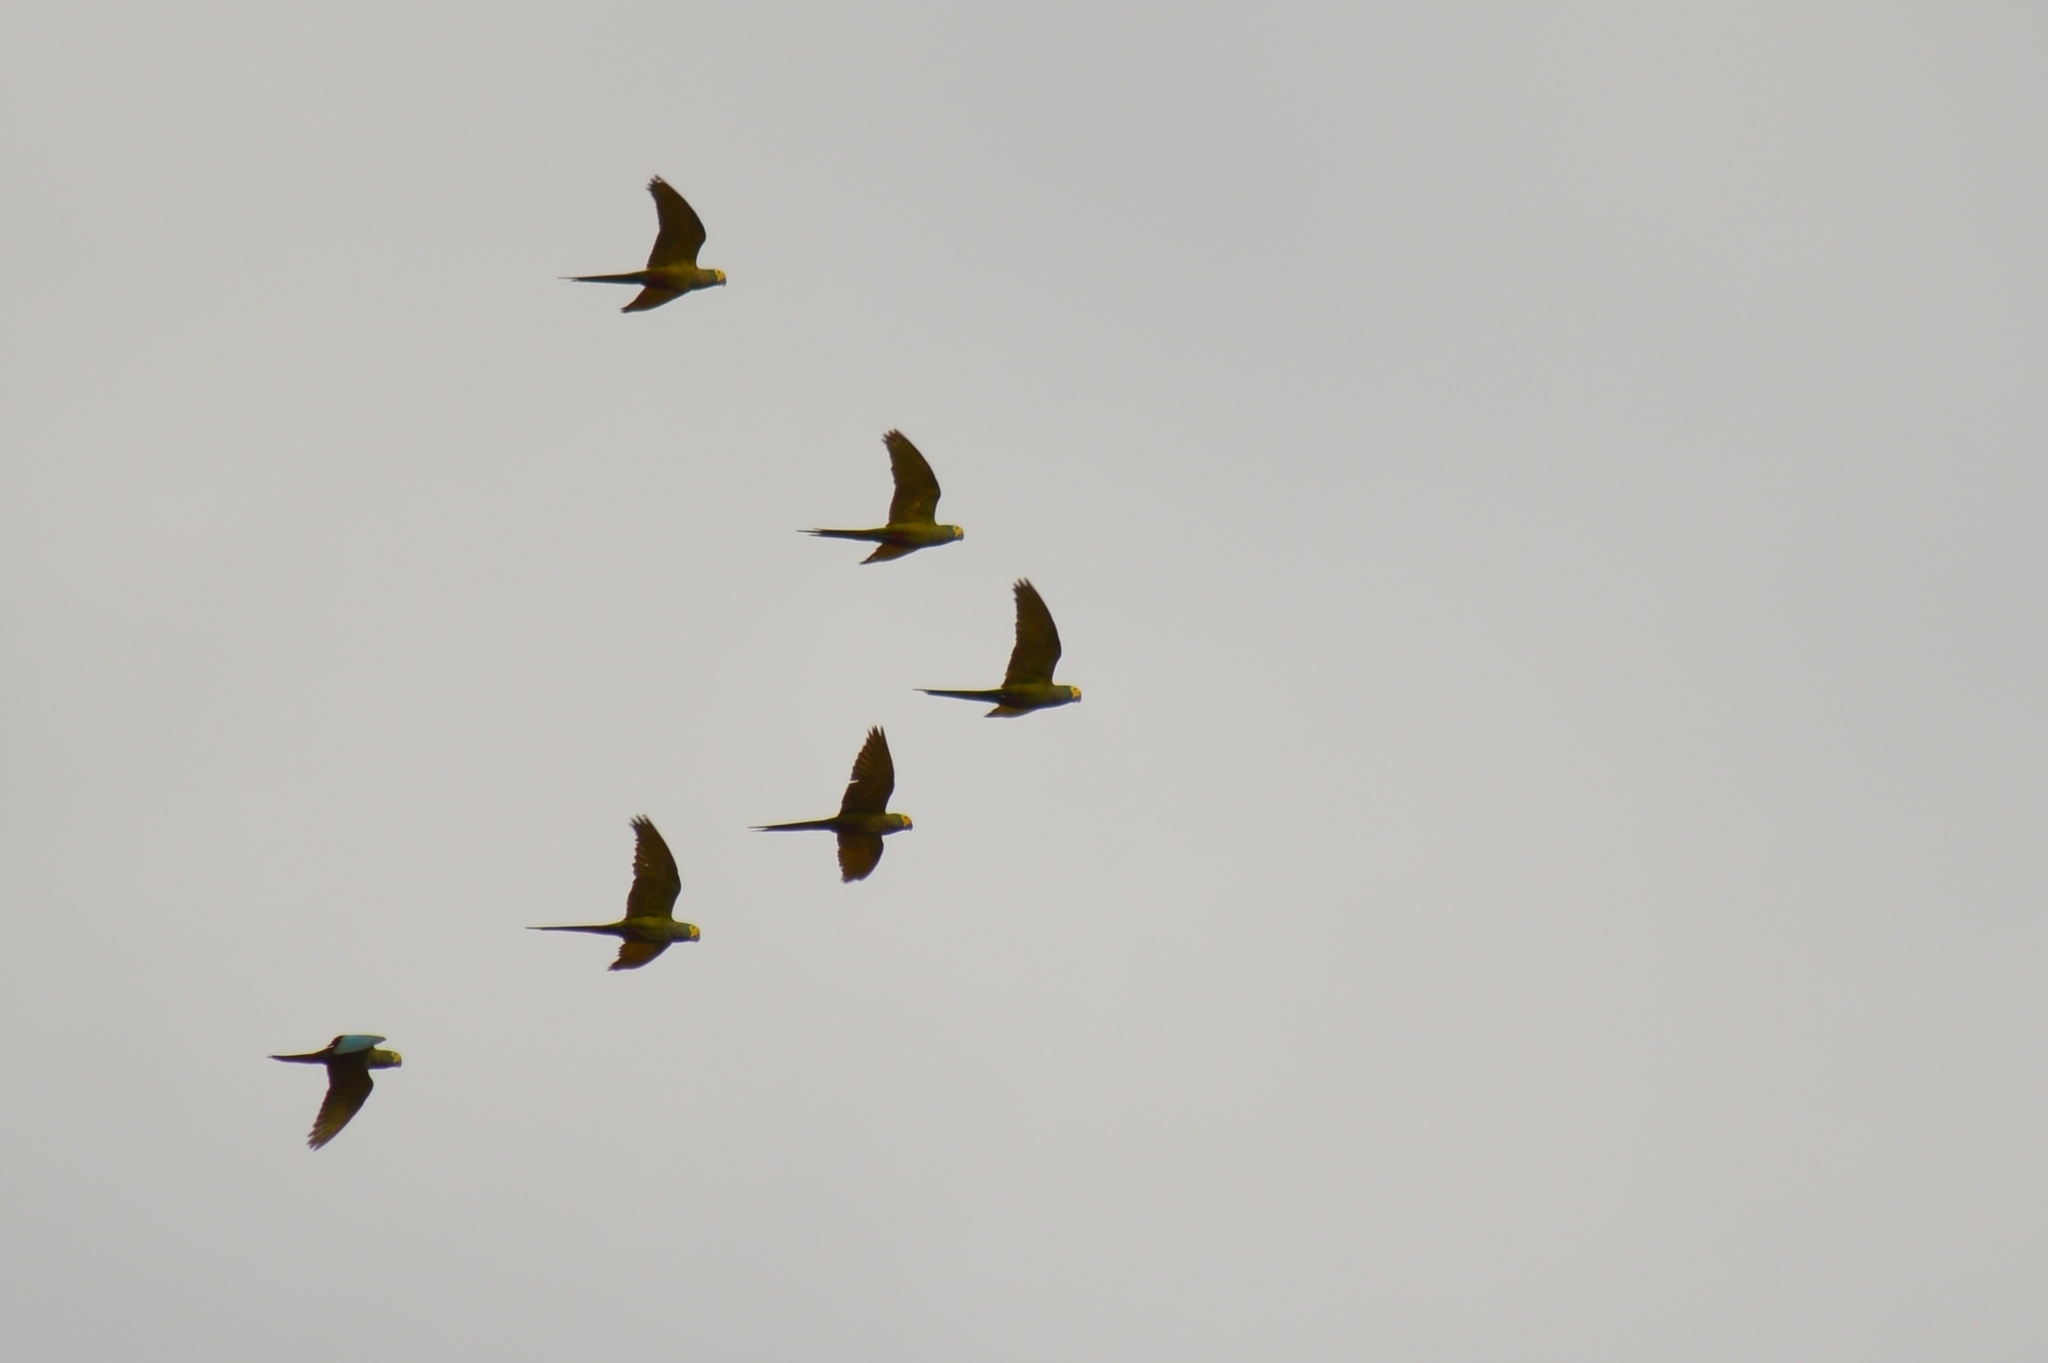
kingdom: Animalia
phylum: Chordata
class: Aves
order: Psittaciformes
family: Psittacidae
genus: Orthopsittaca
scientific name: Orthopsittaca manilata
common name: Red-bellied macaw
